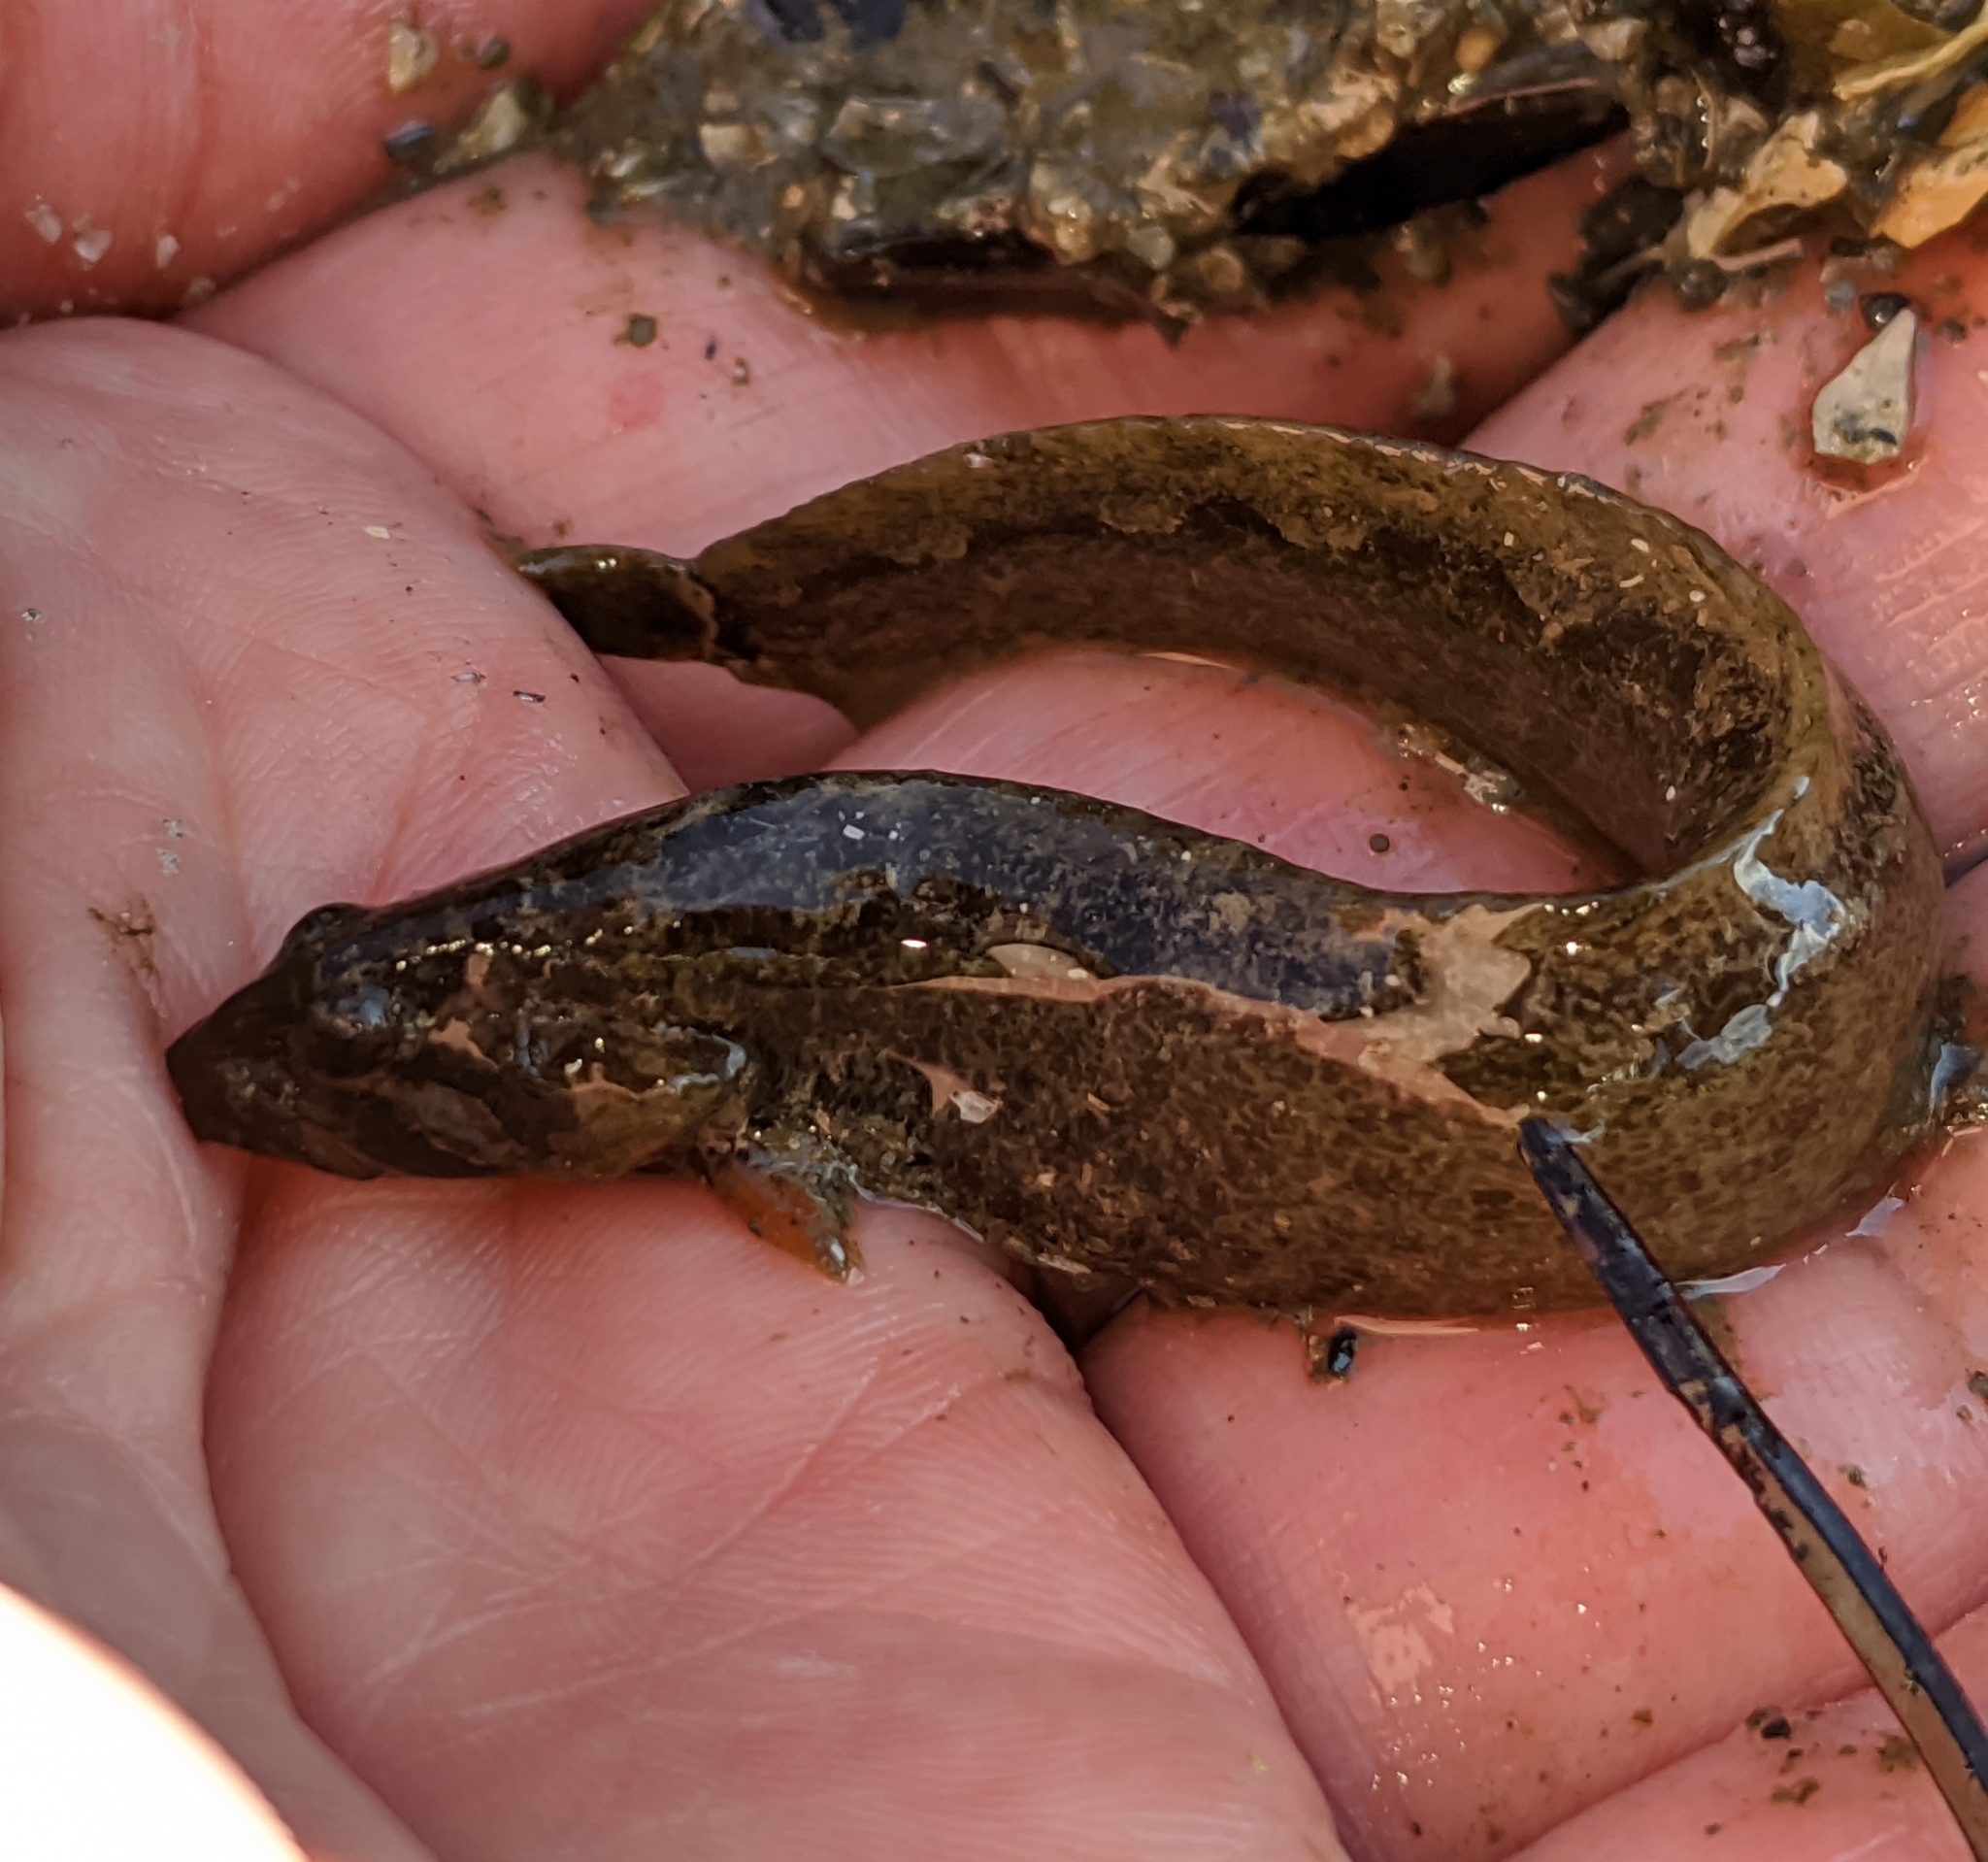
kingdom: Animalia
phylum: Chordata
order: Perciformes
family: Stichaeidae
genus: Anoplarchus
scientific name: Anoplarchus purpurescens
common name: High cockscomb
